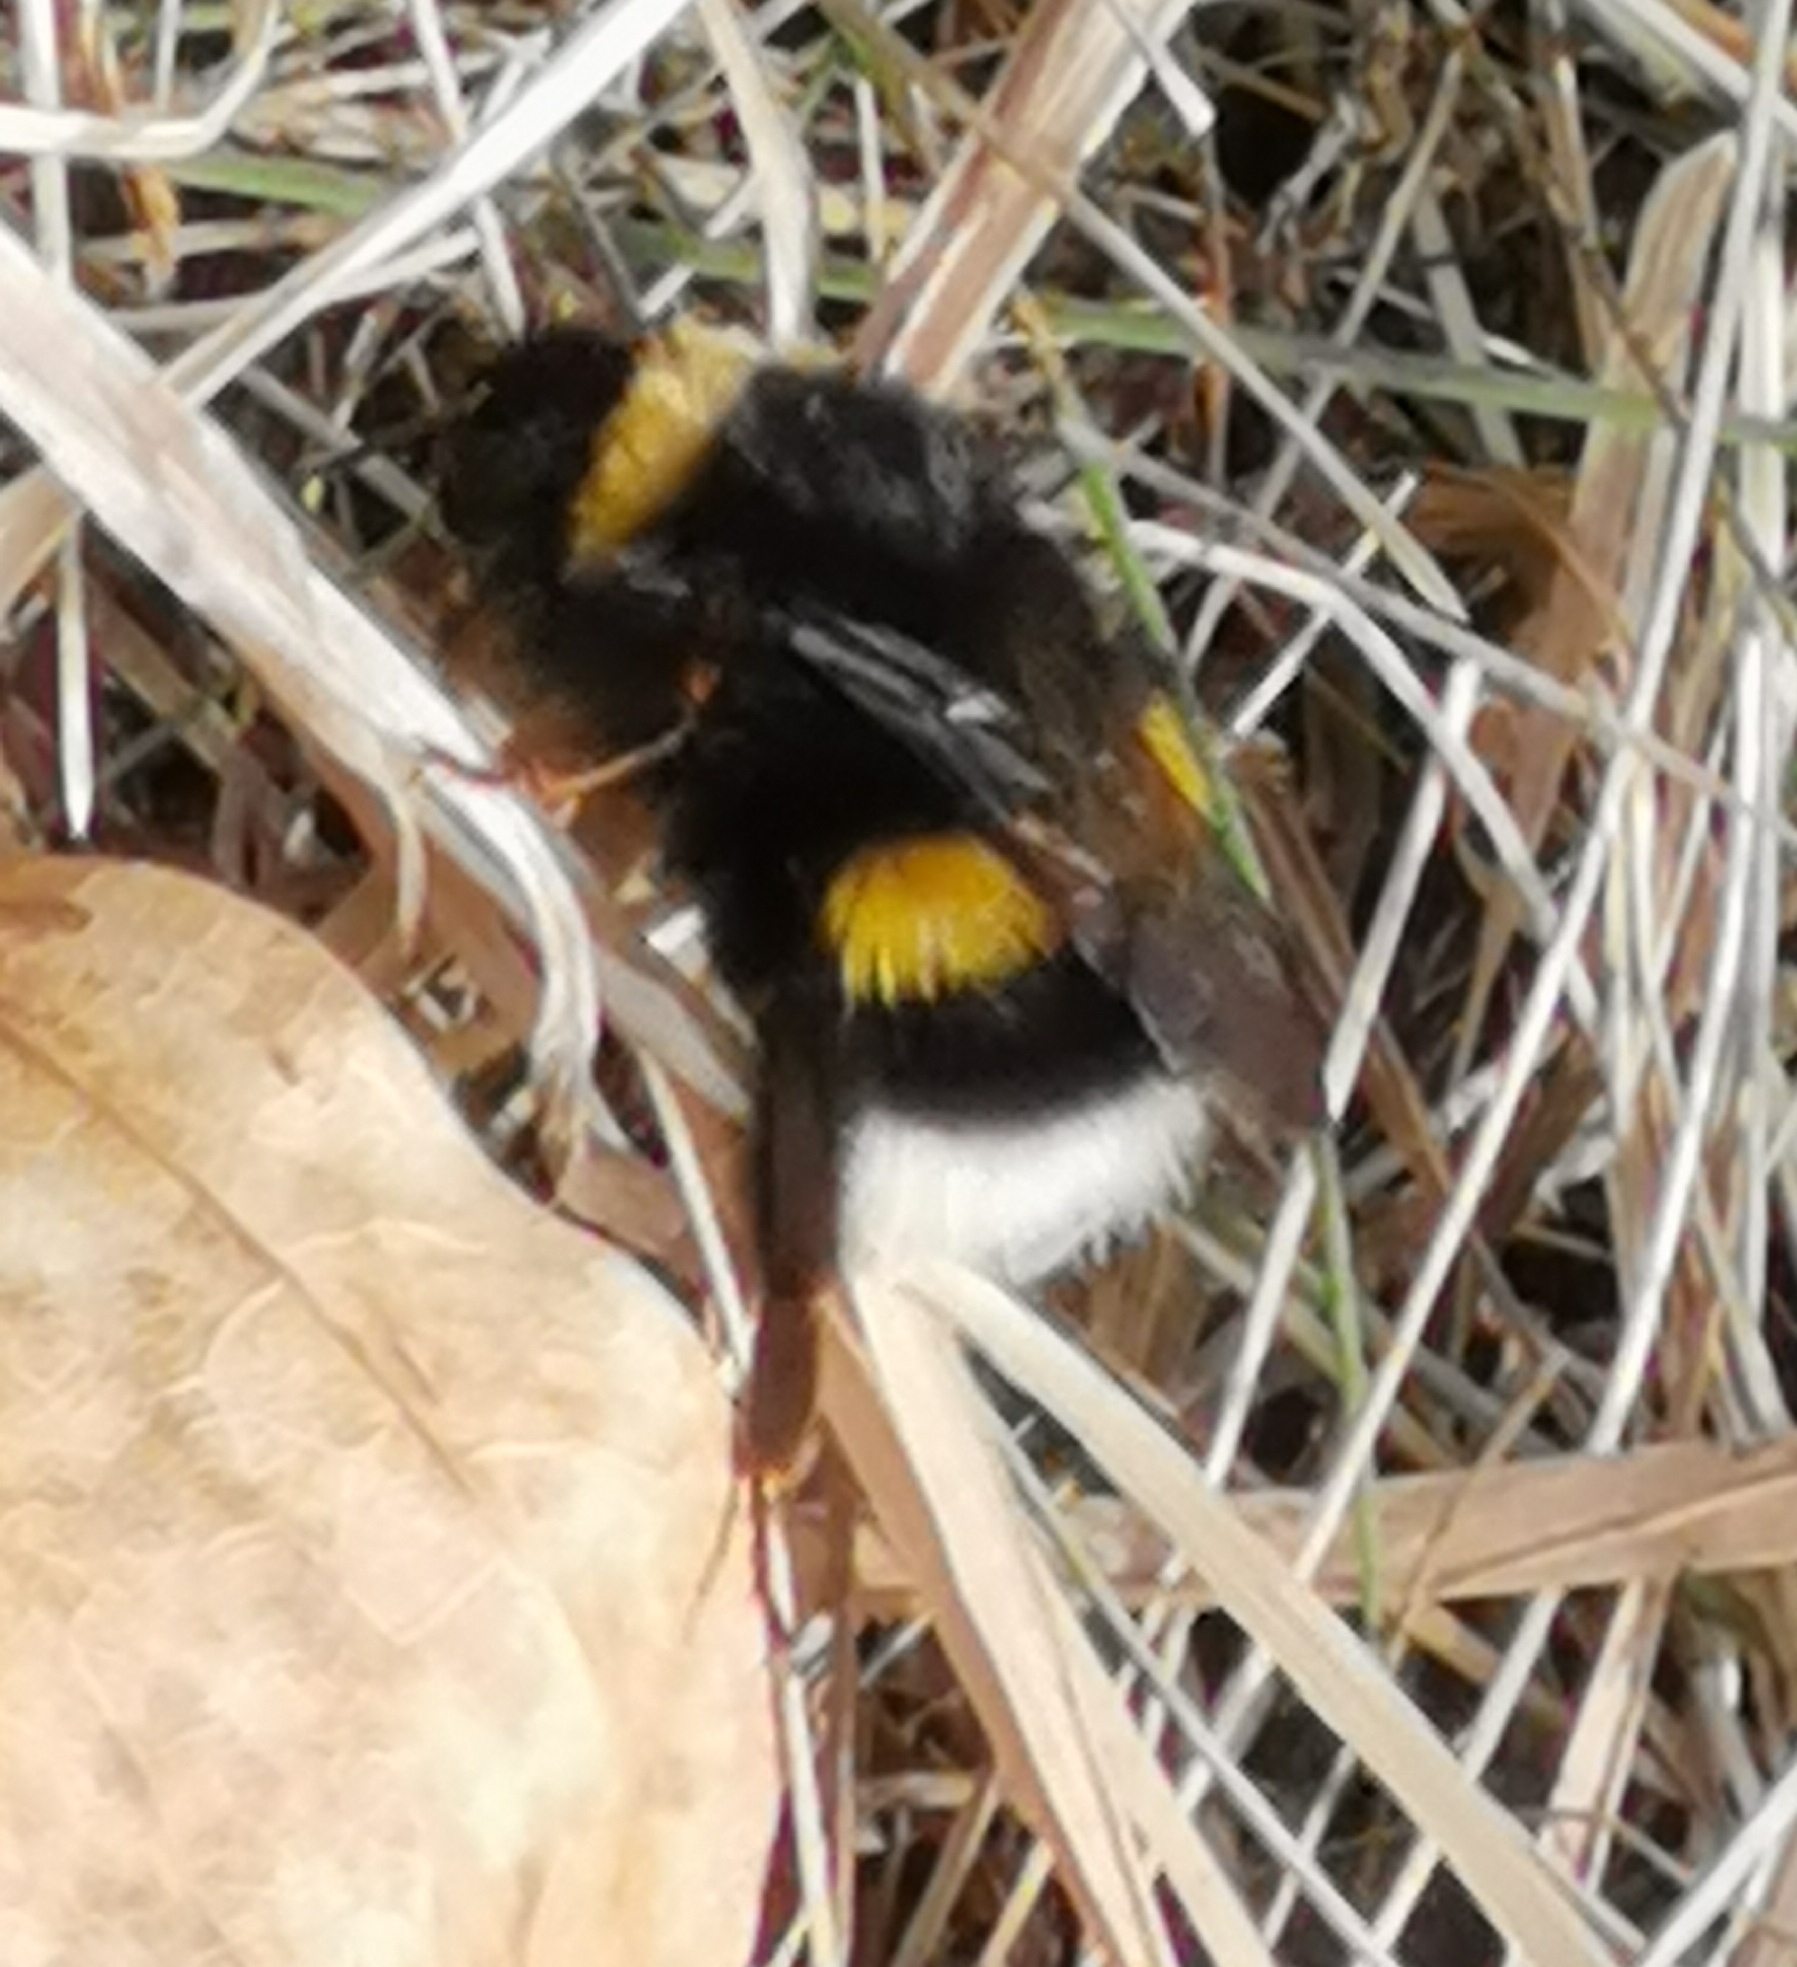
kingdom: Animalia
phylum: Arthropoda
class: Insecta
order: Hymenoptera
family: Apidae
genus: Bombus
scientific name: Bombus
